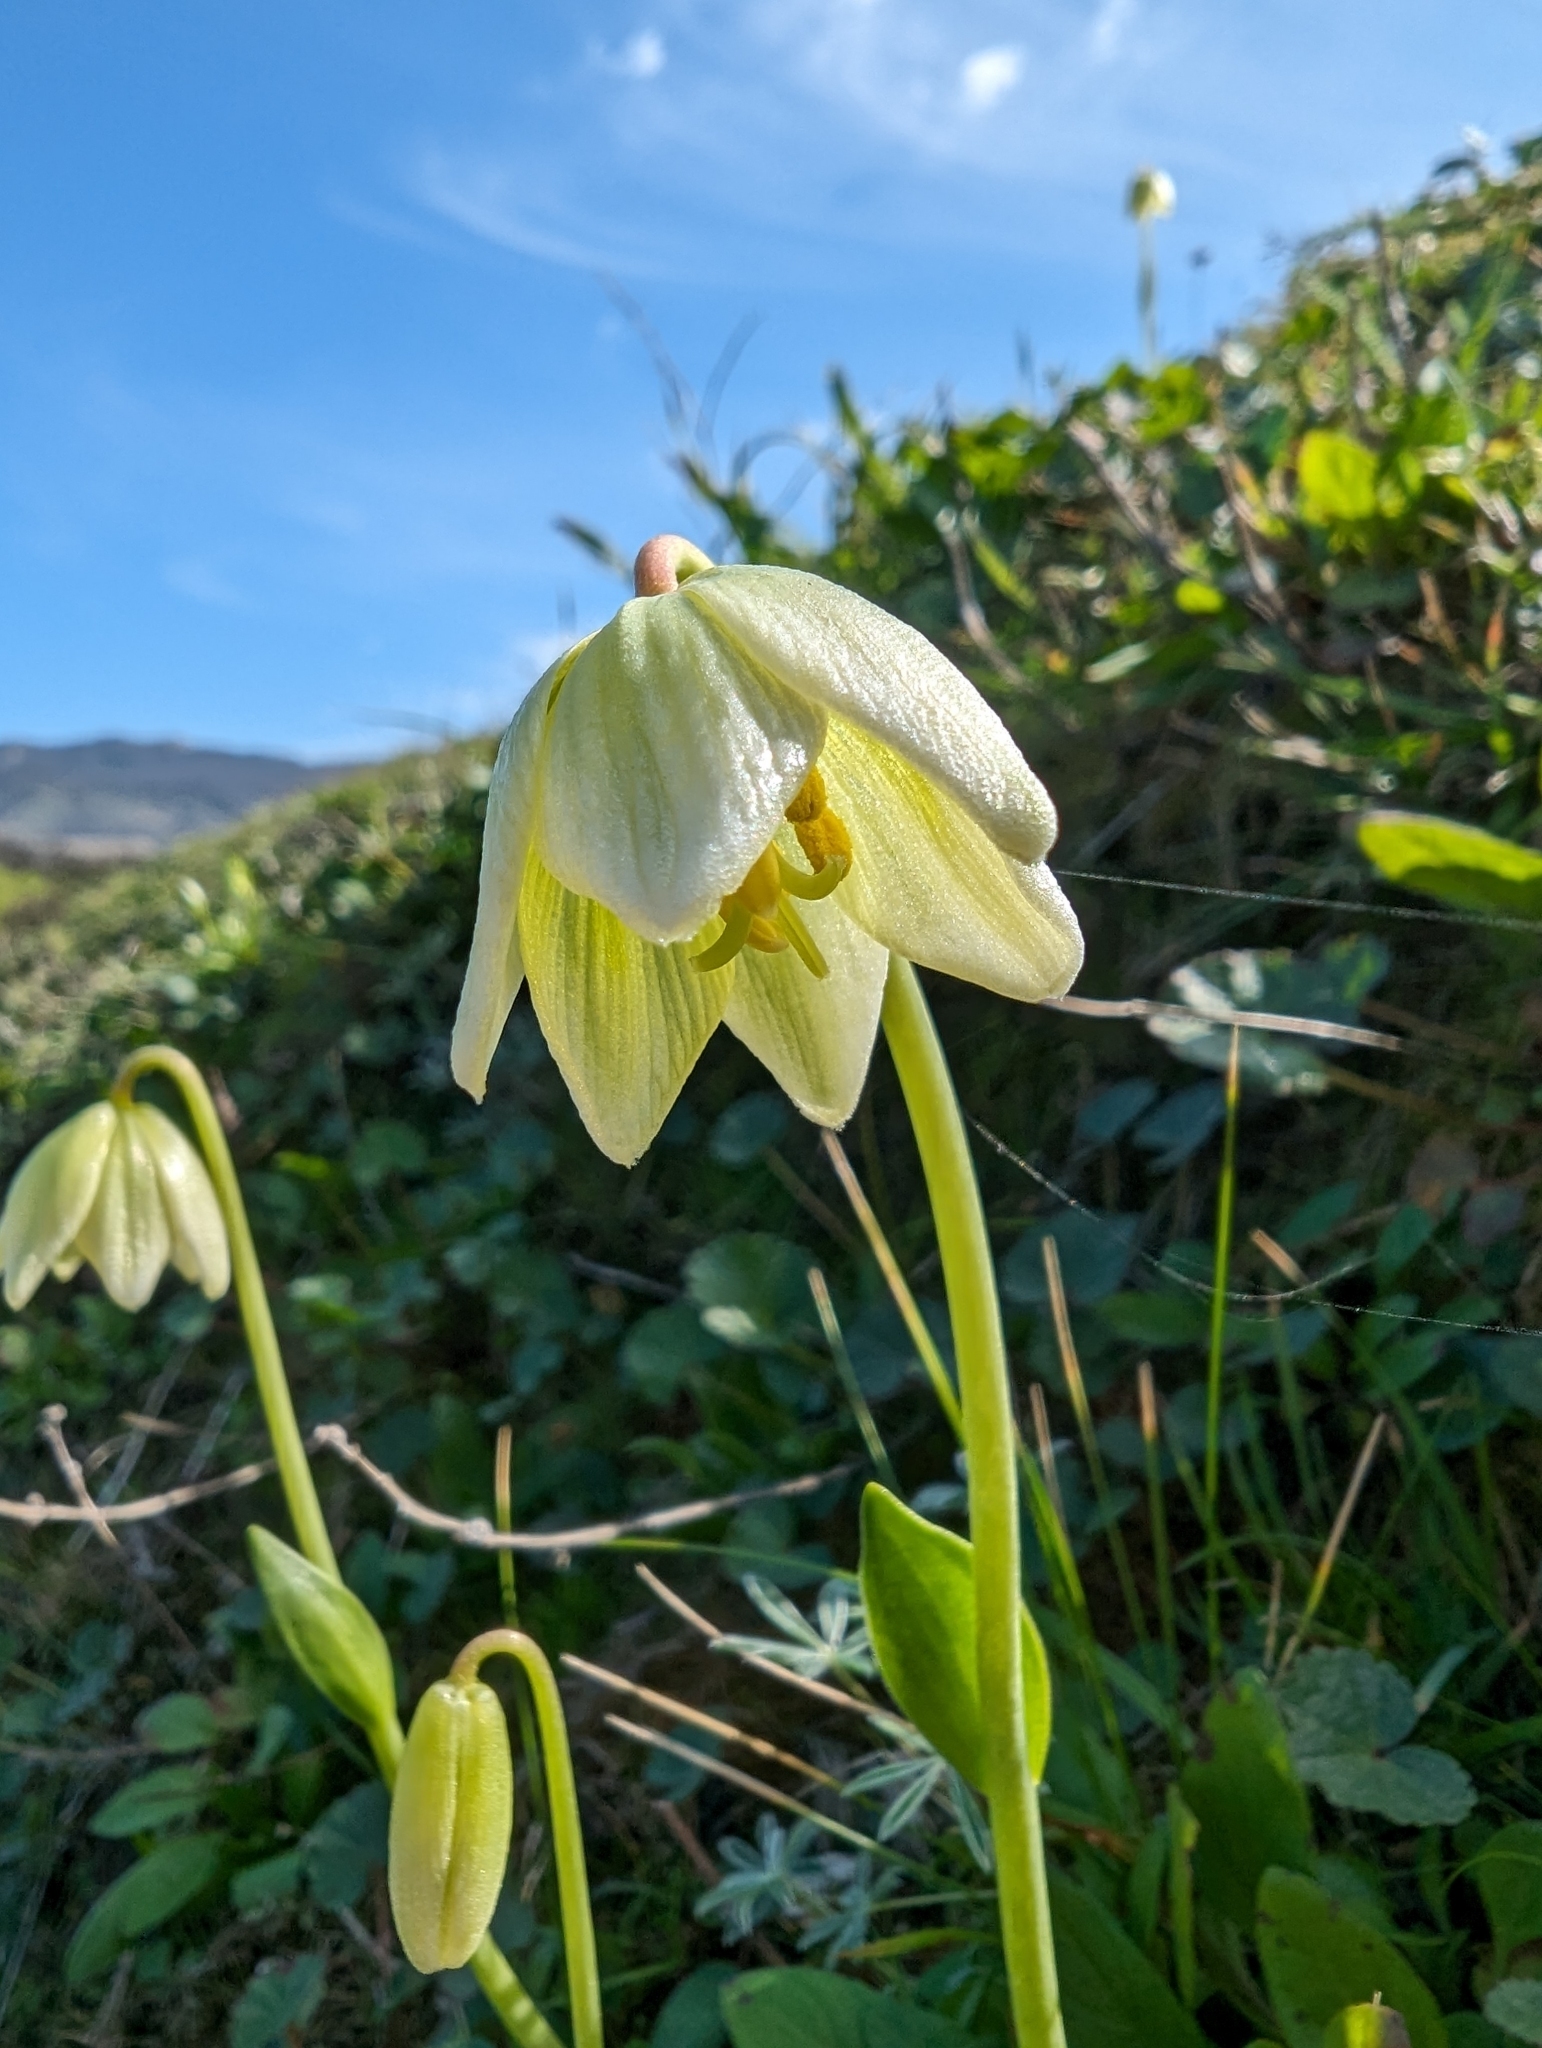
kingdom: Plantae
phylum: Tracheophyta
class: Liliopsida
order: Liliales
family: Liliaceae
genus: Fritillaria
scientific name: Fritillaria liliacea
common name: Fragrant fritillary
